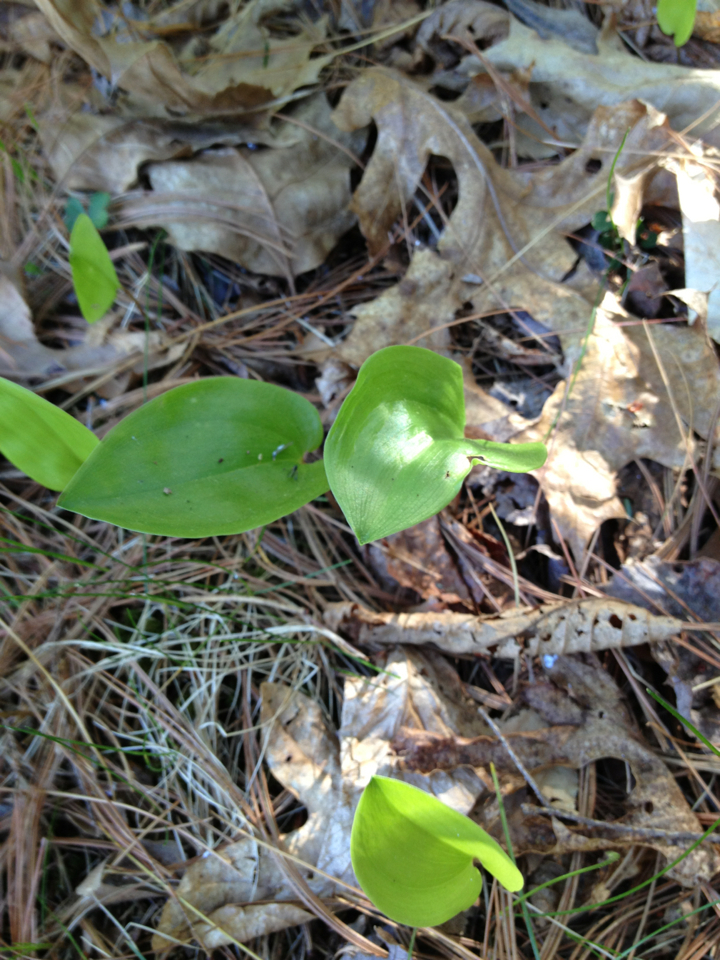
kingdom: Plantae
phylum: Tracheophyta
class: Liliopsida
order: Asparagales
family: Asparagaceae
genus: Maianthemum
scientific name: Maianthemum canadense
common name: False lily-of-the-valley
